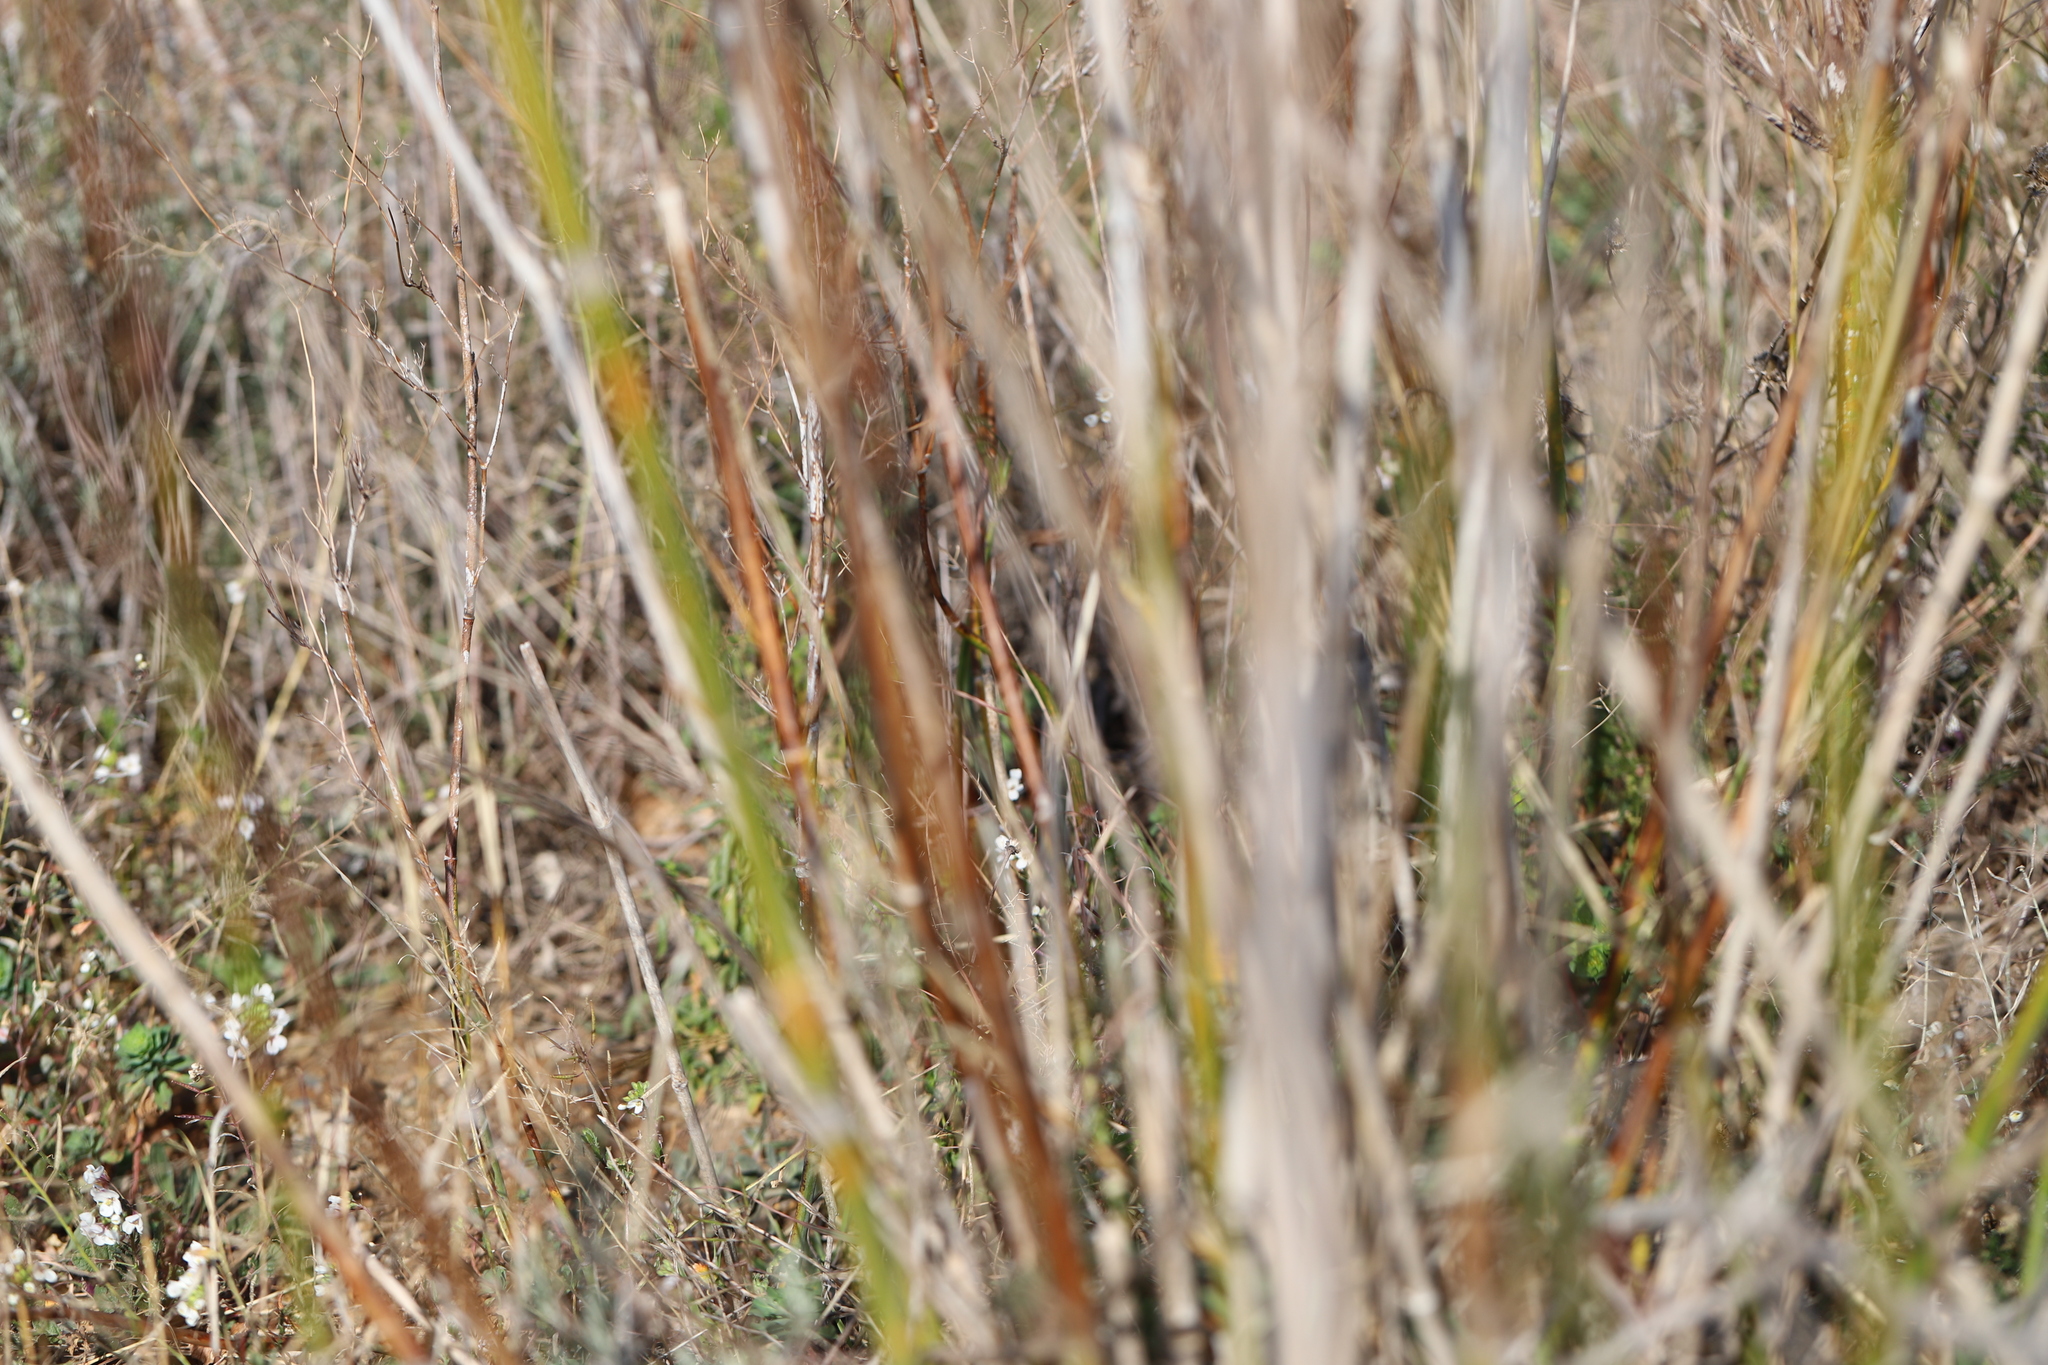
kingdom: Plantae
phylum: Tracheophyta
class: Magnoliopsida
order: Apiales
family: Apiaceae
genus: Foeniculum
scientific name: Foeniculum vulgare
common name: Fennel
